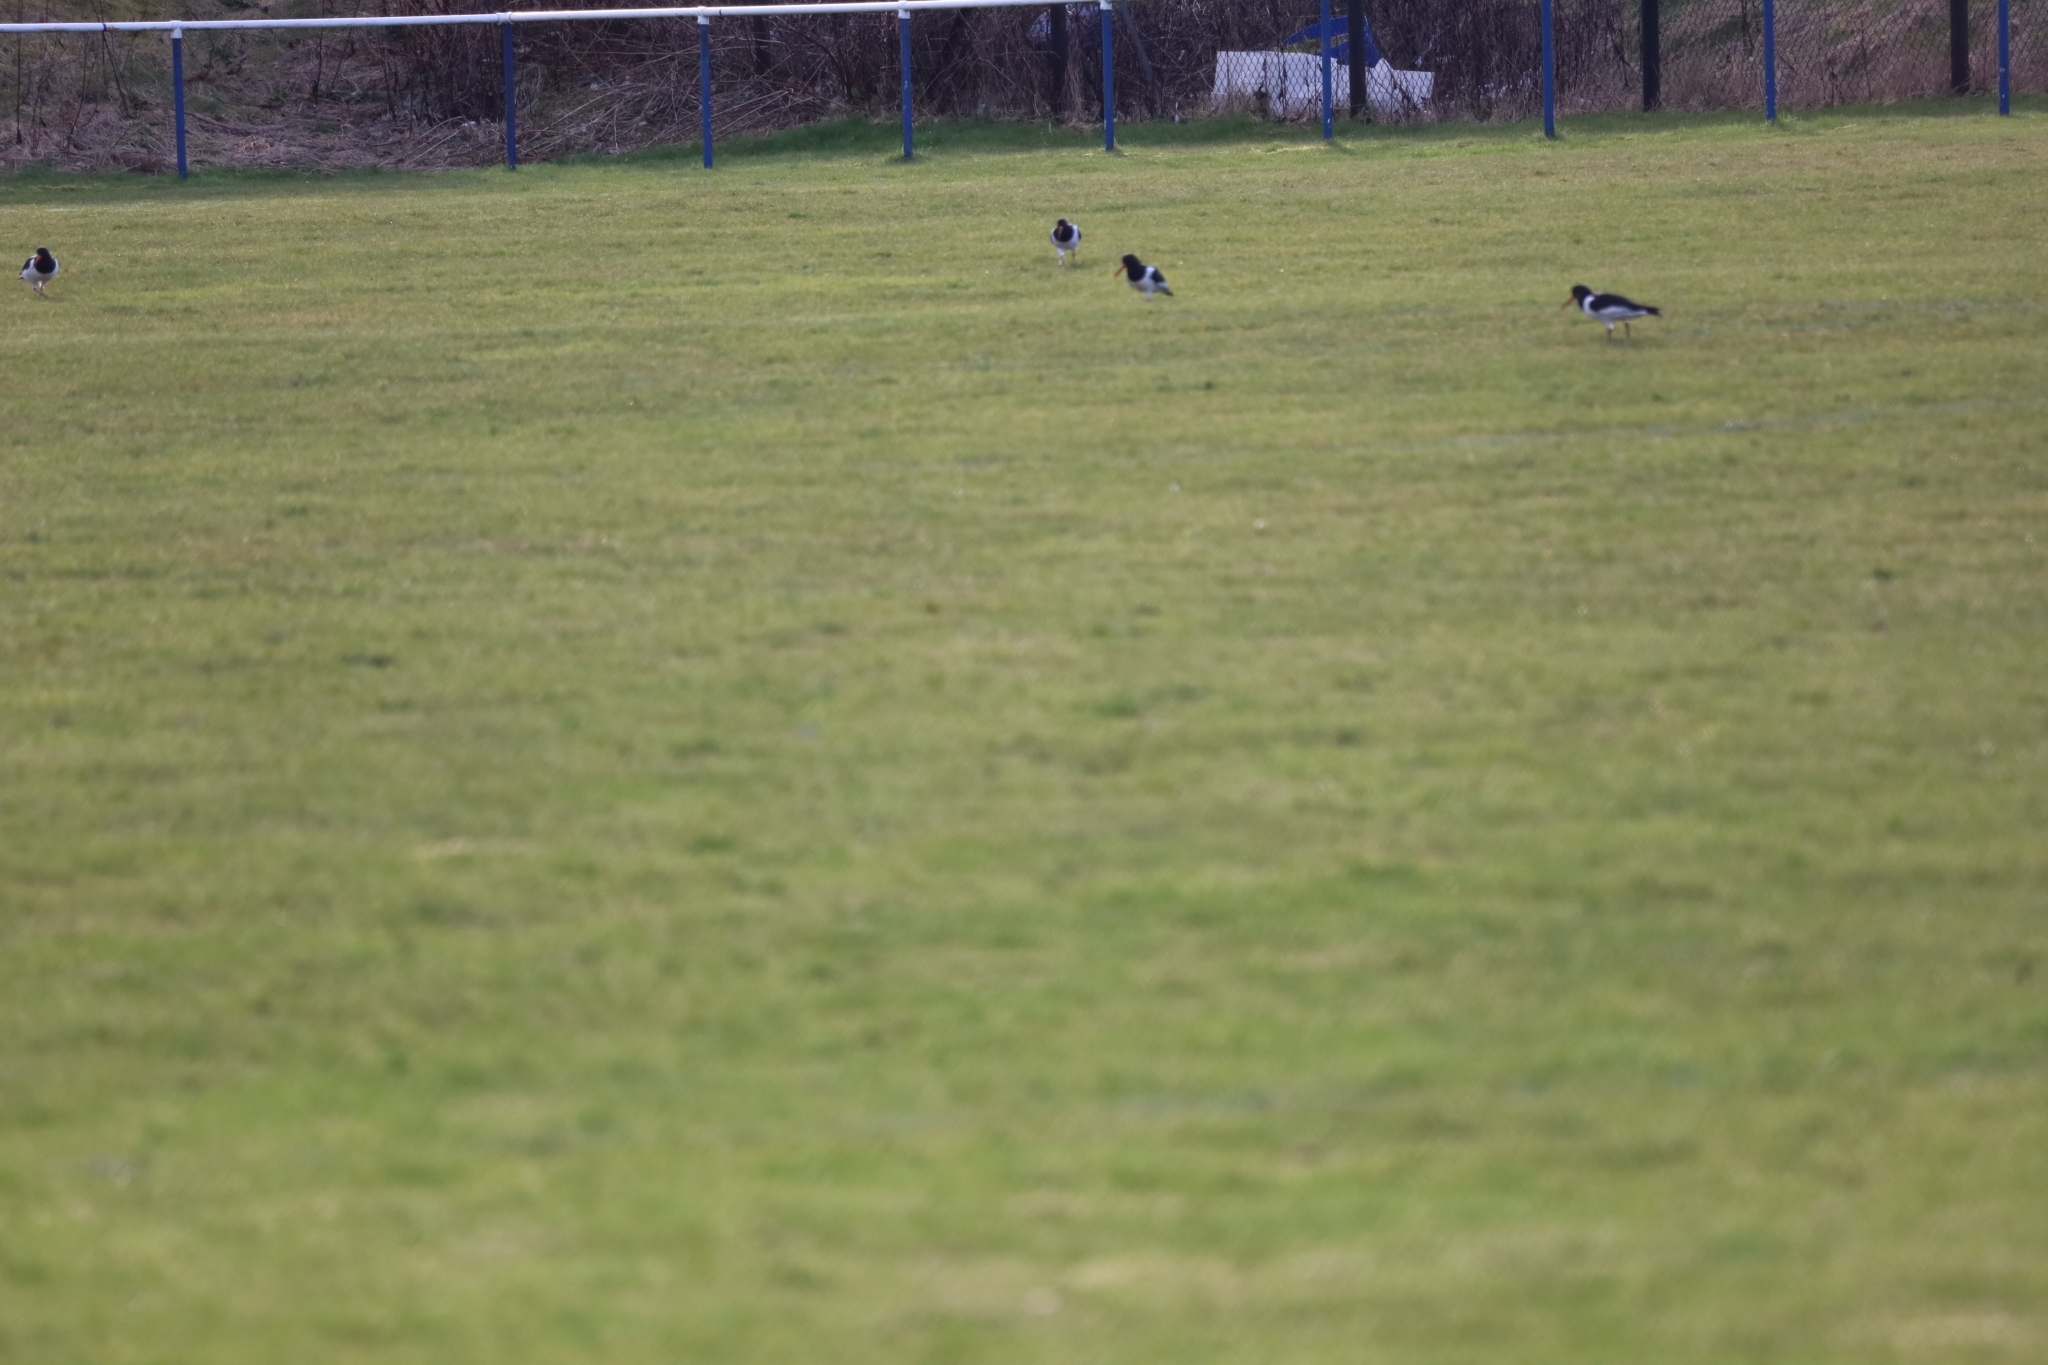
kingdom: Animalia
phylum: Chordata
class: Aves
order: Charadriiformes
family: Haematopodidae
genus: Haematopus
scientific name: Haematopus ostralegus
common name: Eurasian oystercatcher
